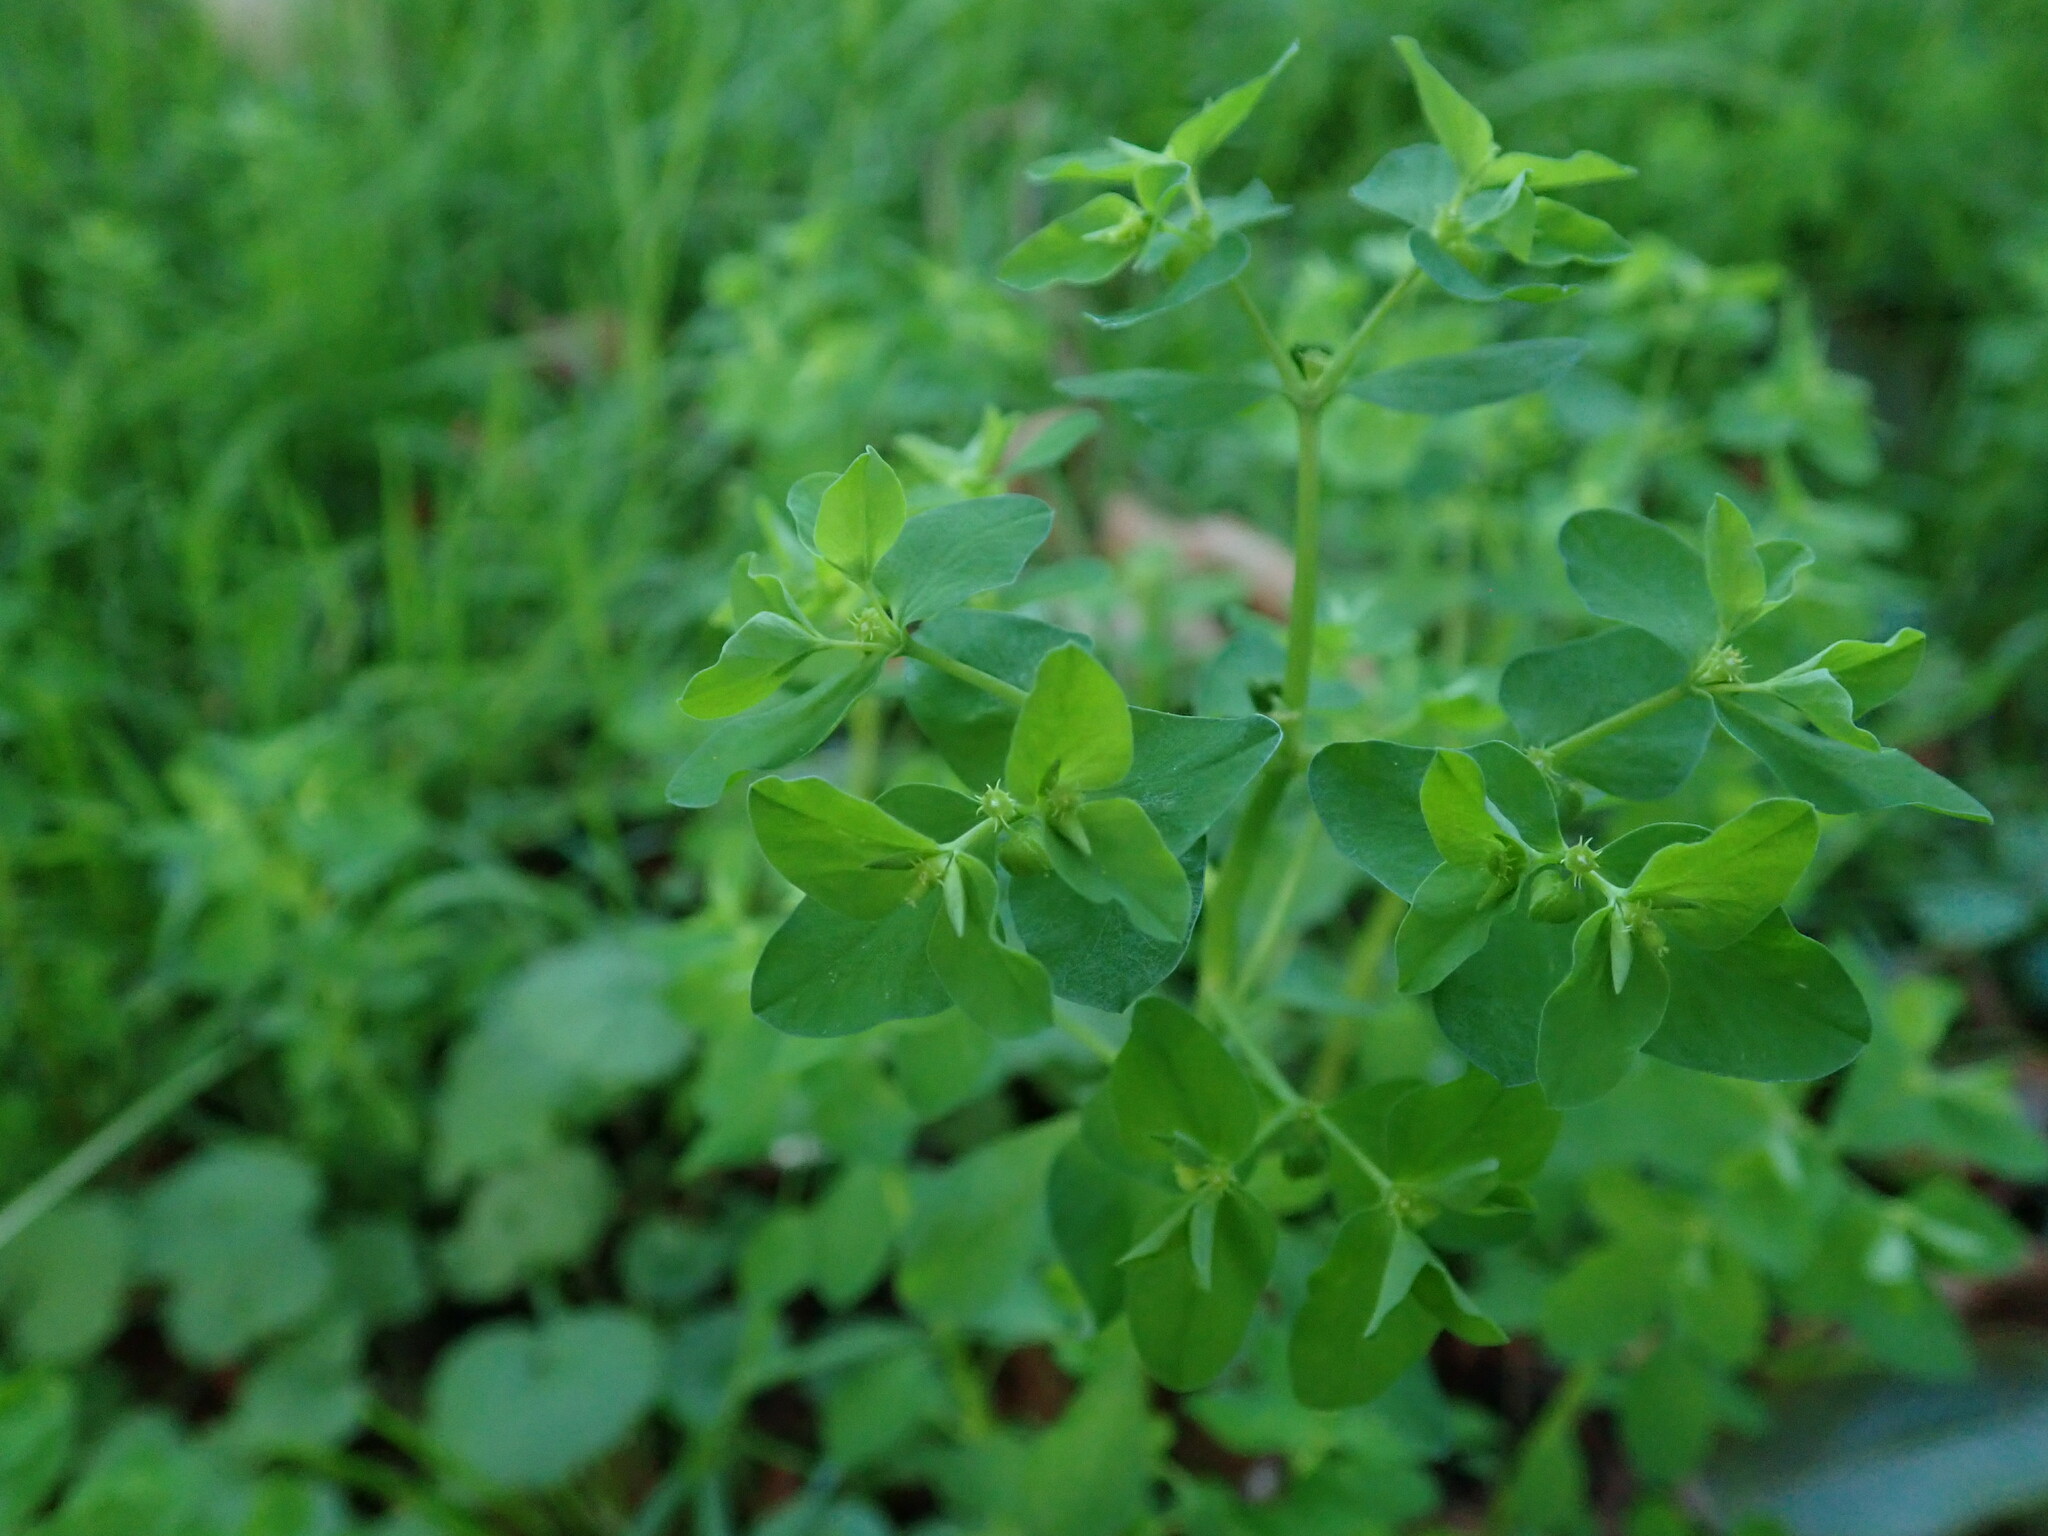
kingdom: Plantae
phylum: Tracheophyta
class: Magnoliopsida
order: Malpighiales
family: Euphorbiaceae
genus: Euphorbia
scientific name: Euphorbia peplus
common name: Petty spurge
